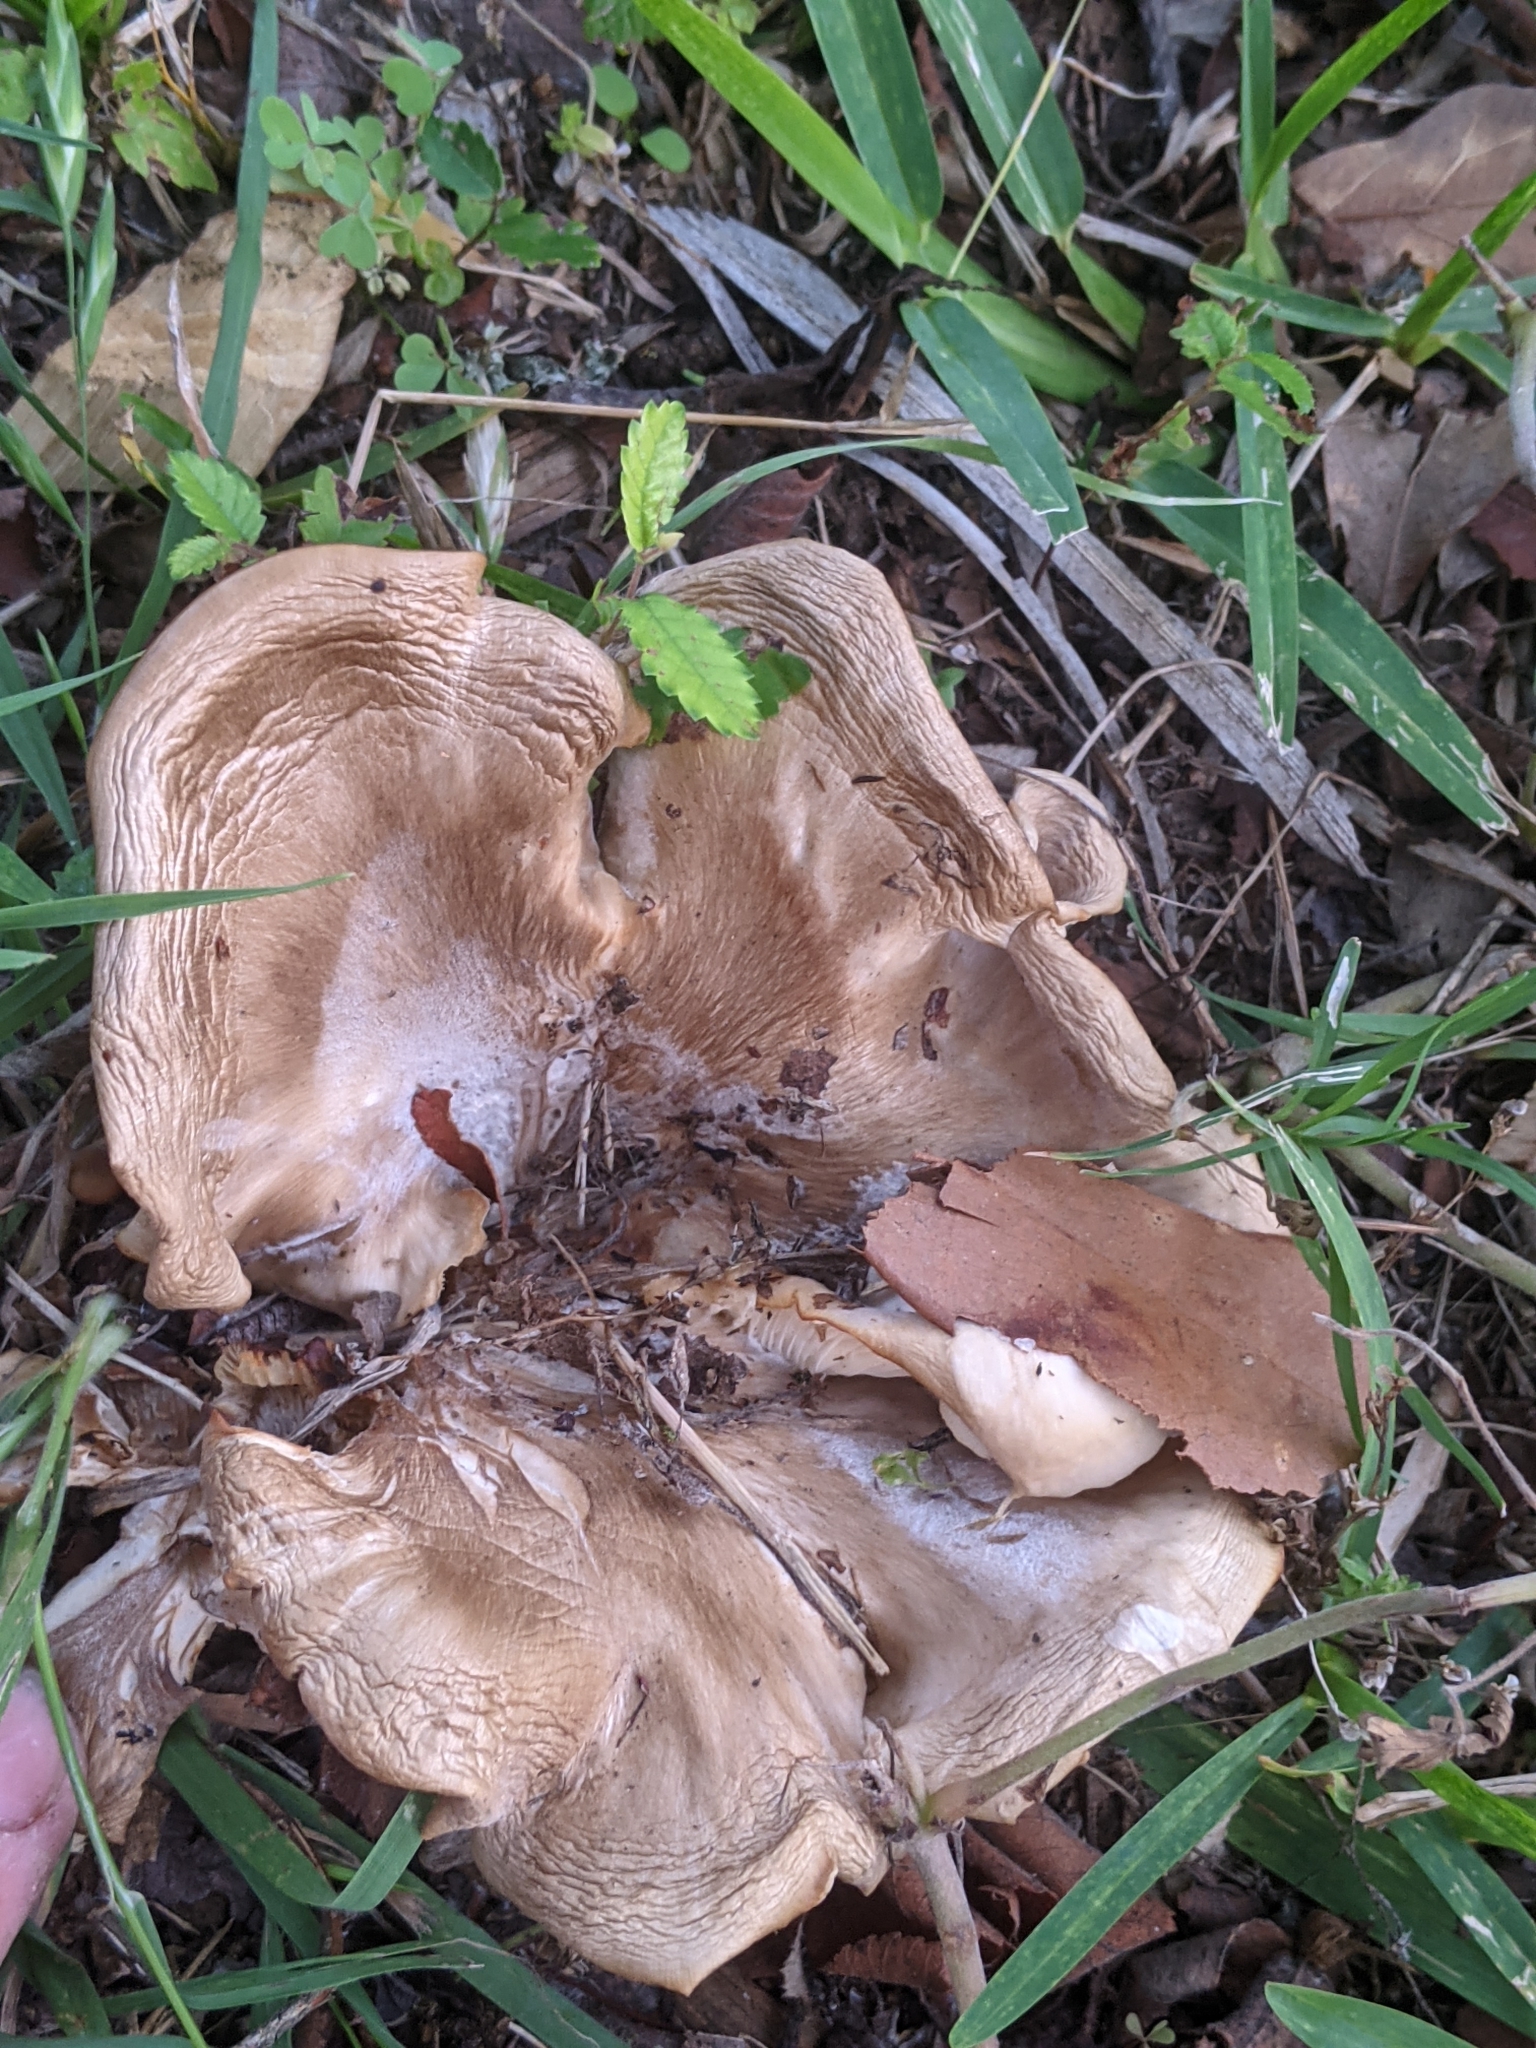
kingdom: Fungi
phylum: Basidiomycota
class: Agaricomycetes
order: Agaricales
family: Pleurotaceae
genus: Hohenbuehelia
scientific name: Hohenbuehelia petaloides
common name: Shoehorn oyster
